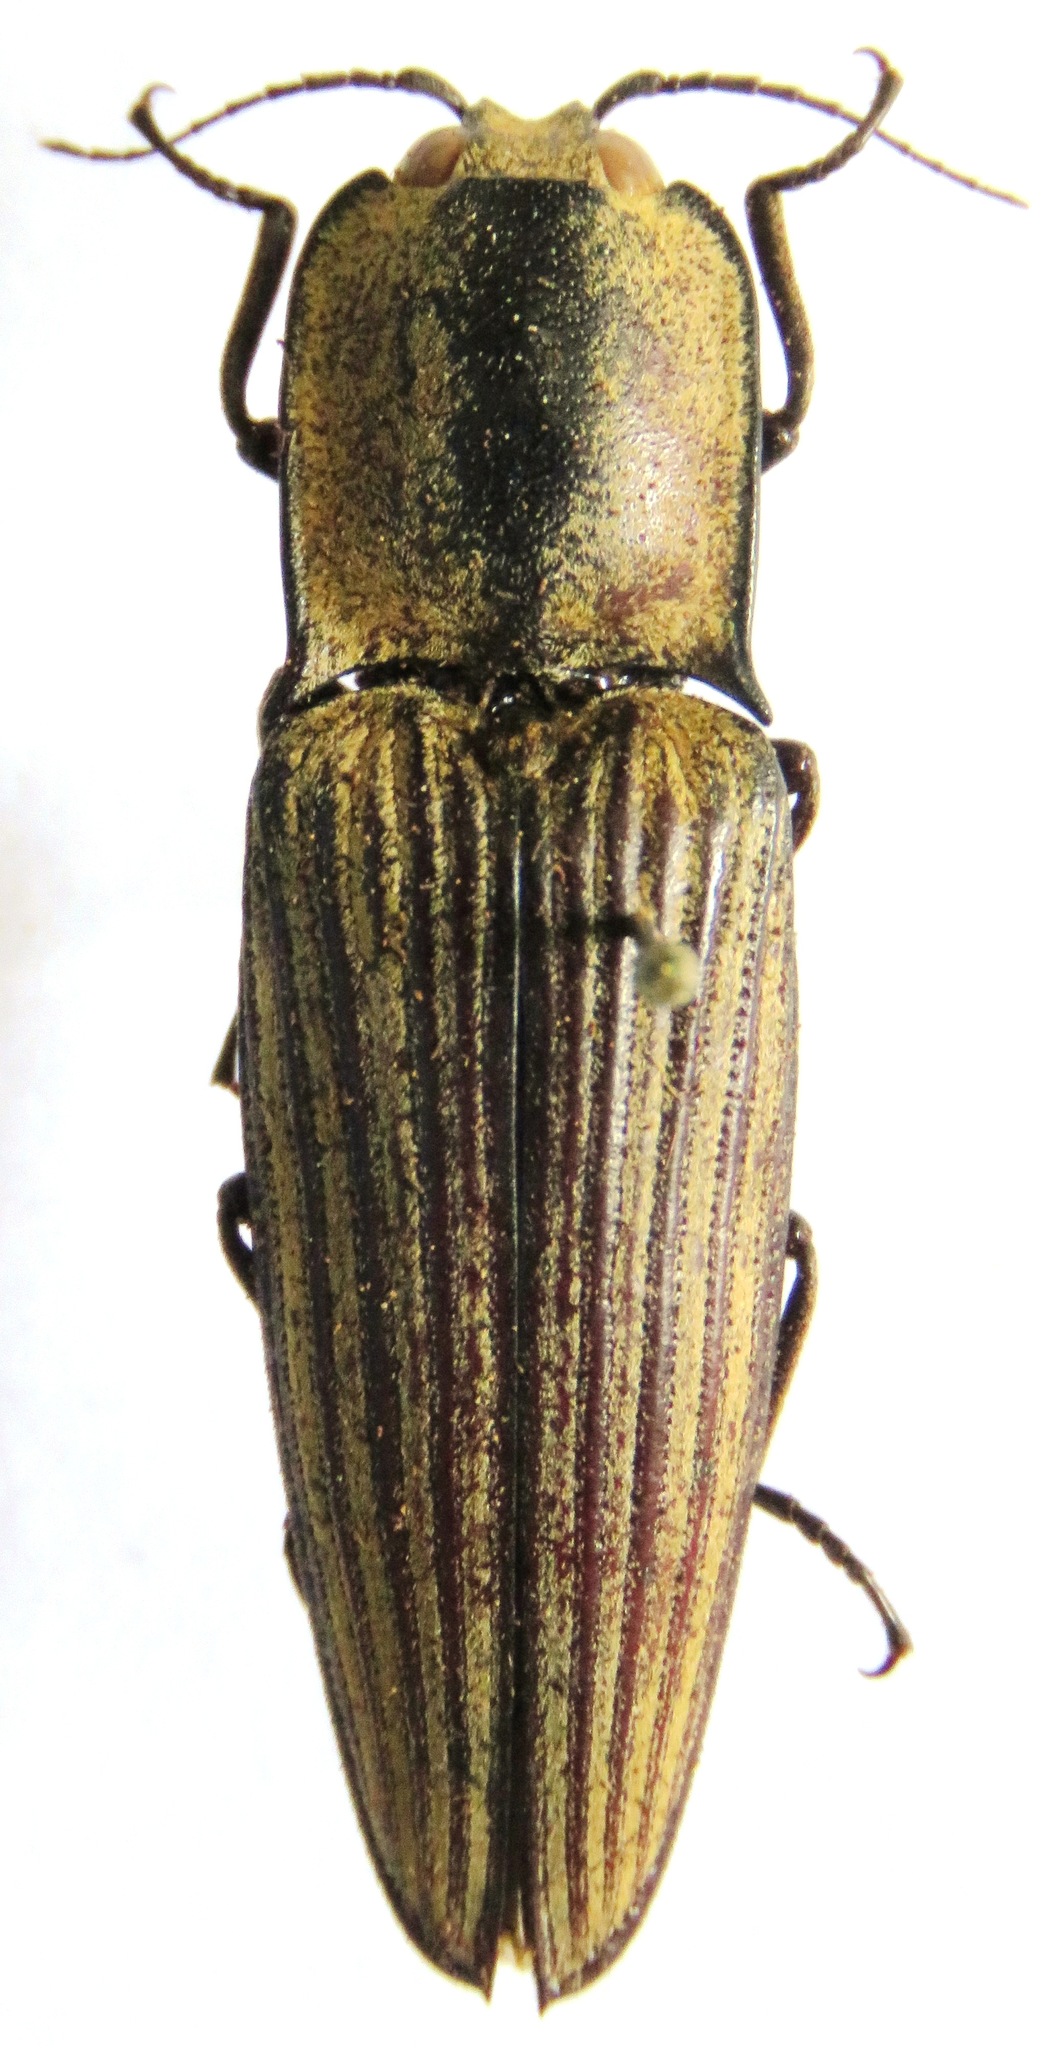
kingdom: Animalia
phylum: Arthropoda
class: Insecta
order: Coleoptera
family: Elateridae
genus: Alaus
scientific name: Alaus
